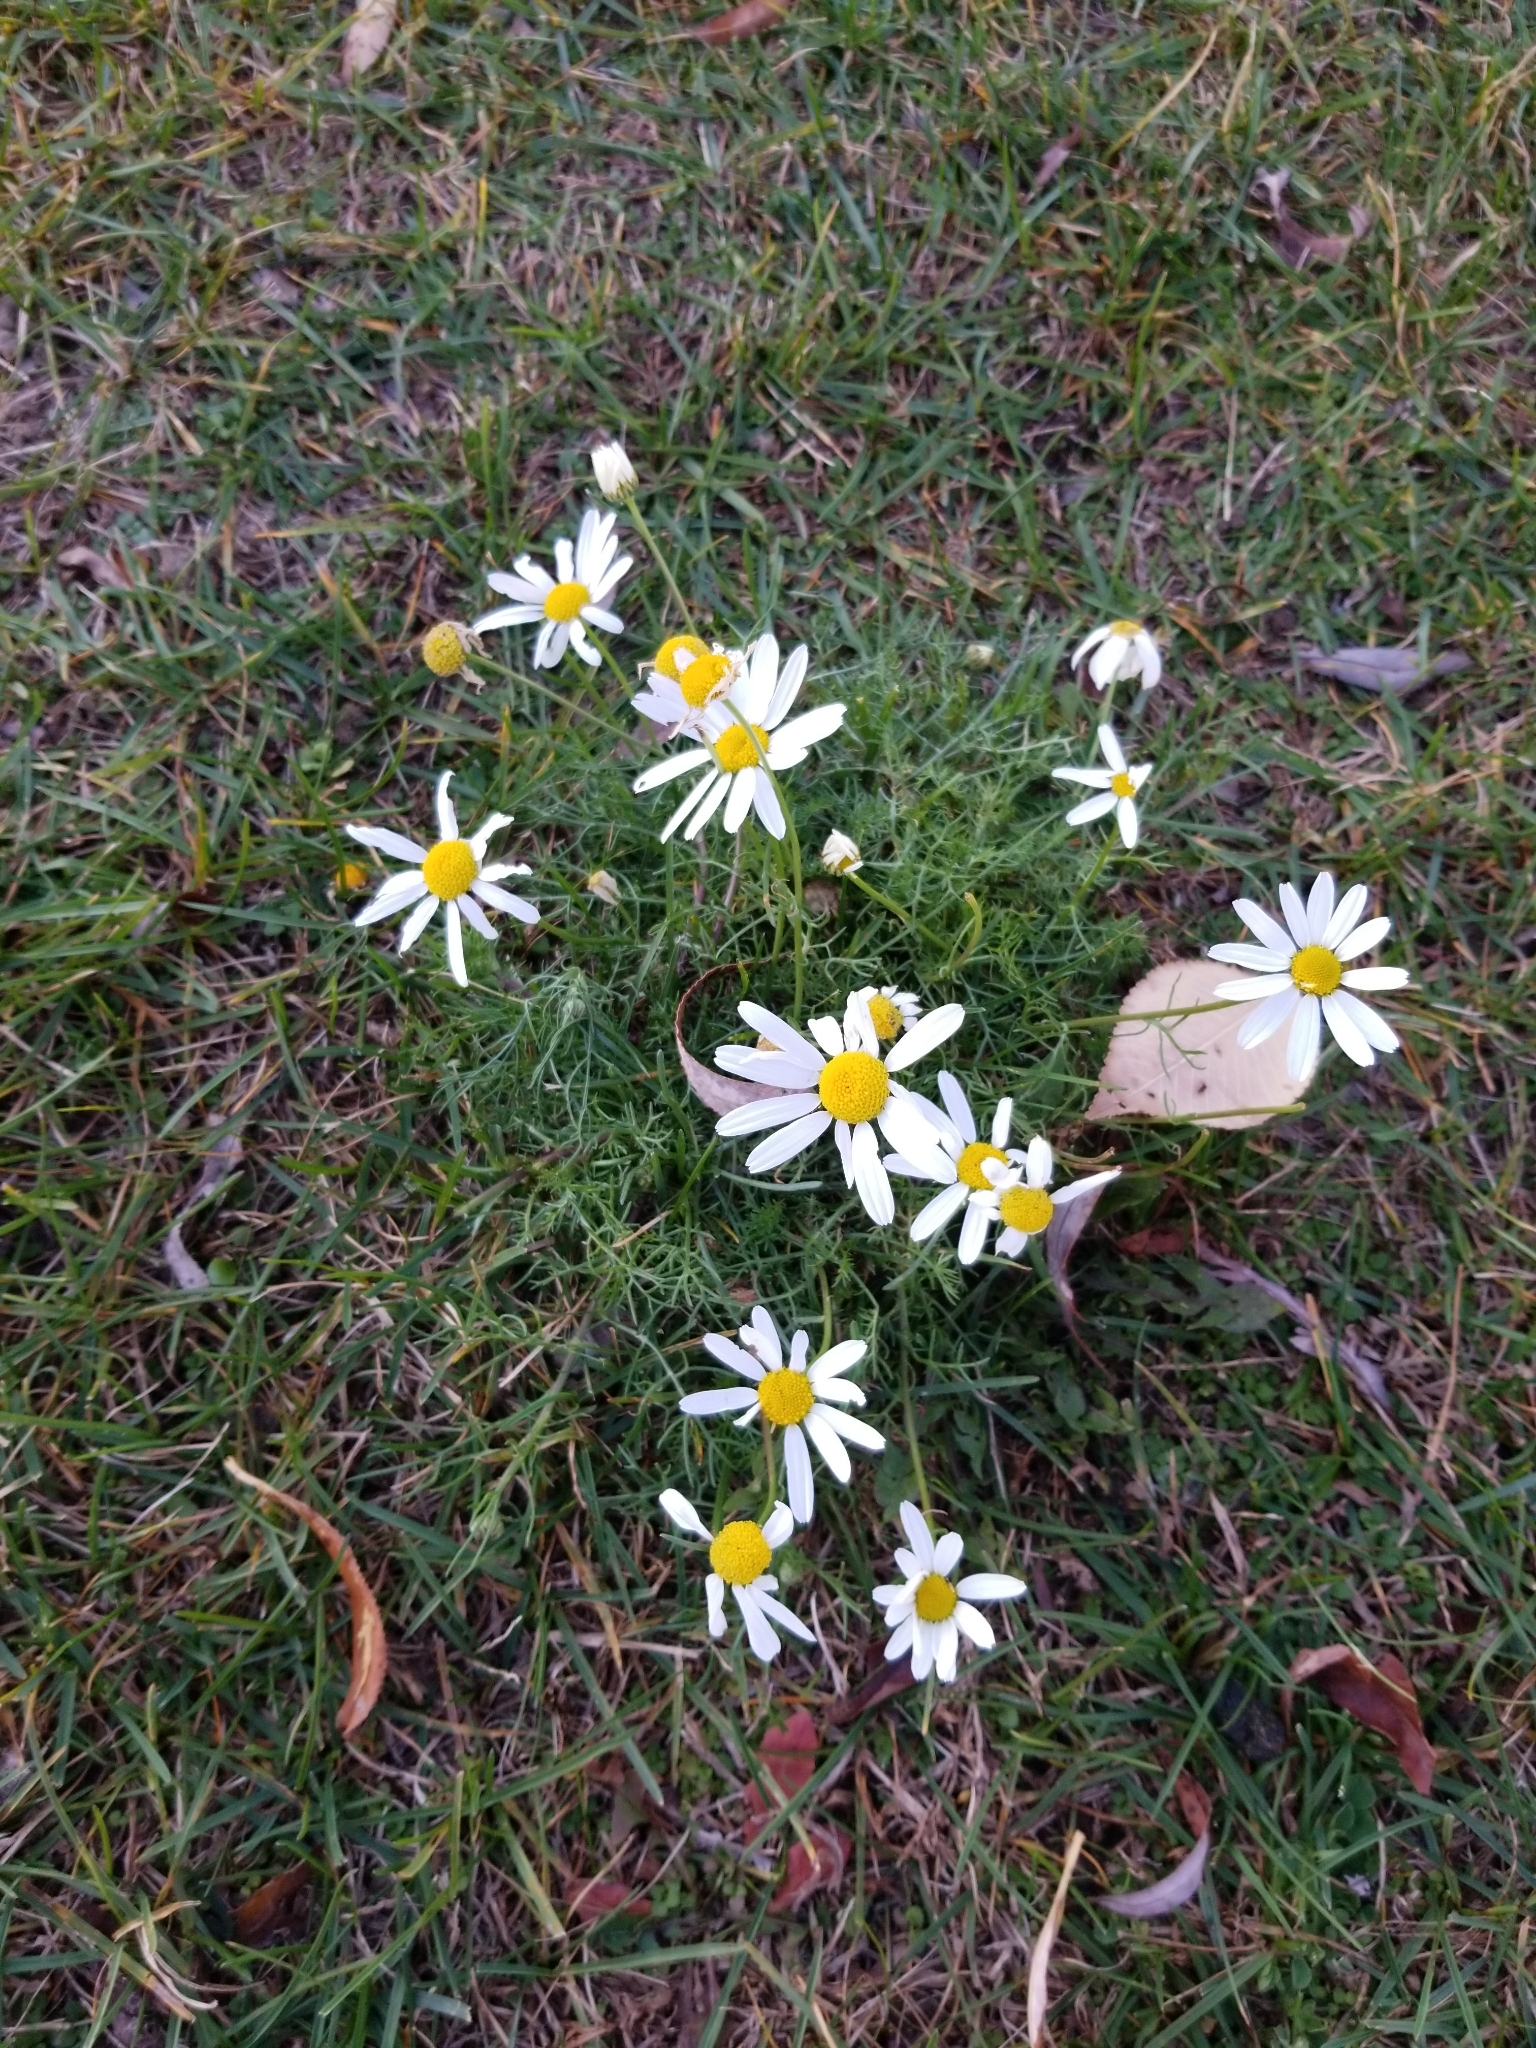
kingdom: Plantae
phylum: Tracheophyta
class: Magnoliopsida
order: Asterales
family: Asteraceae
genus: Tripleurospermum
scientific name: Tripleurospermum inodorum
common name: Scentless mayweed
